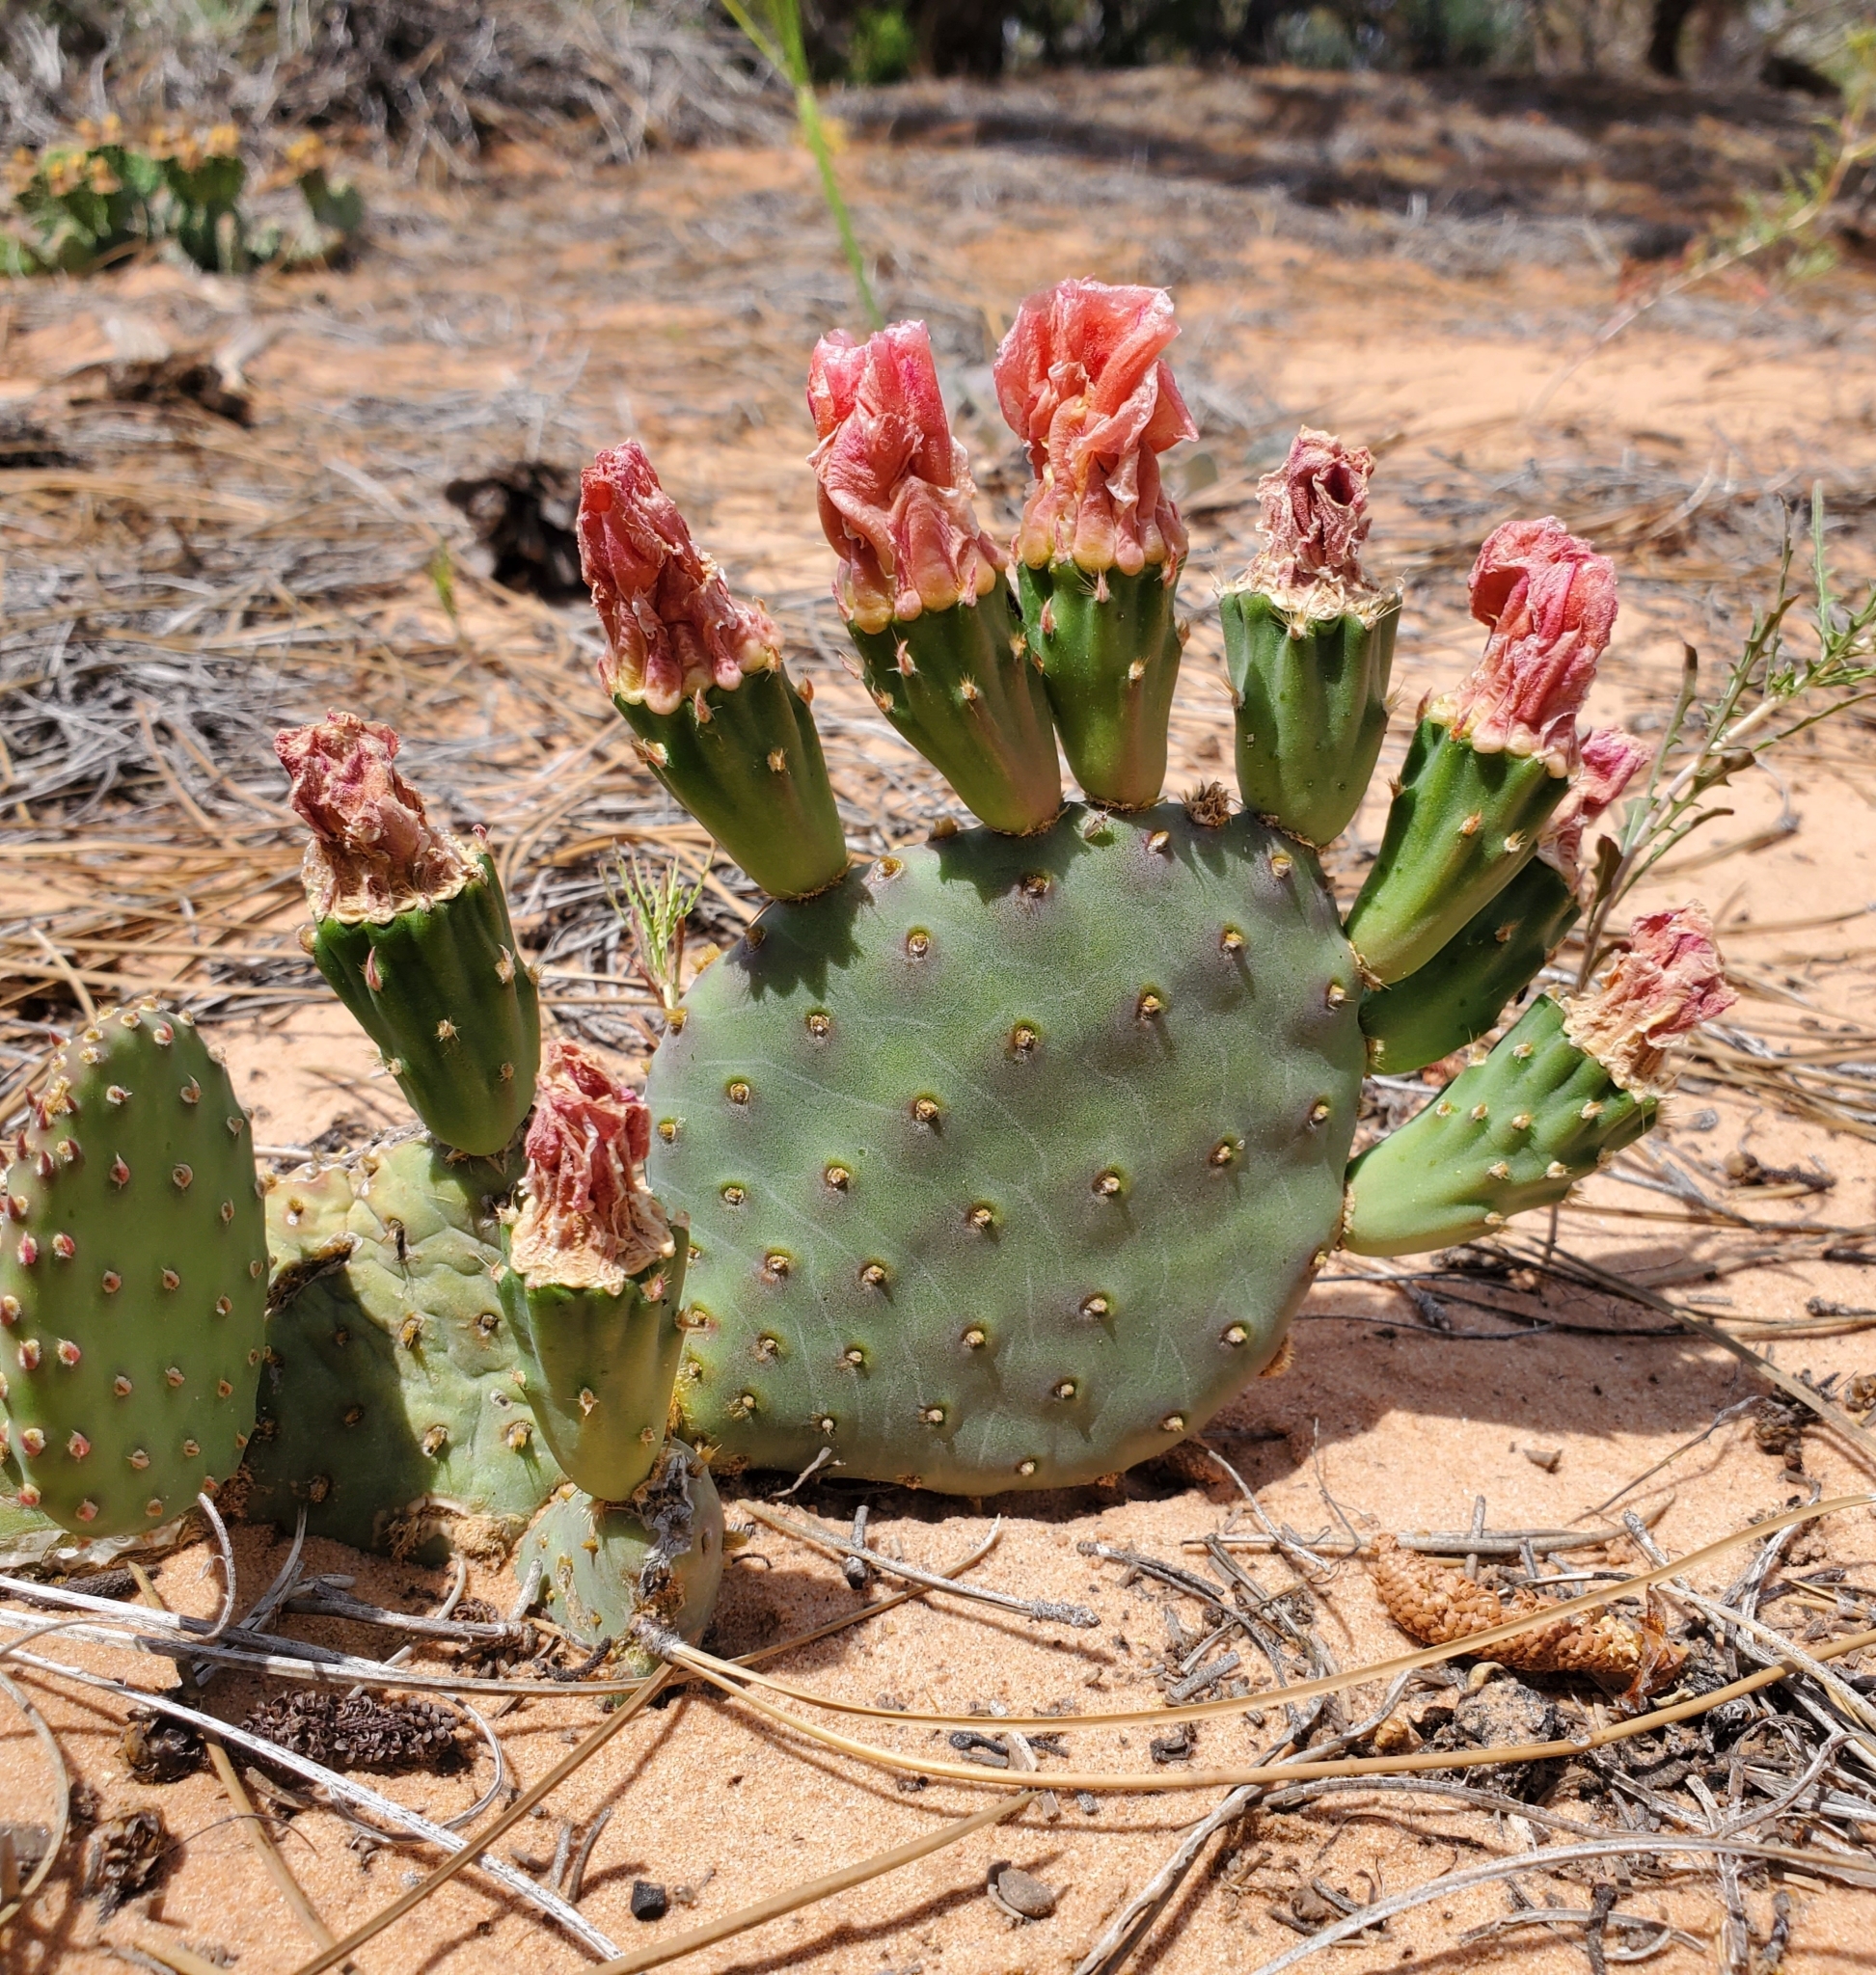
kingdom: Plantae
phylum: Tracheophyta
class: Magnoliopsida
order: Caryophyllales
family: Cactaceae
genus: Opuntia
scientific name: Opuntia aurea
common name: Golden prickly-pear
